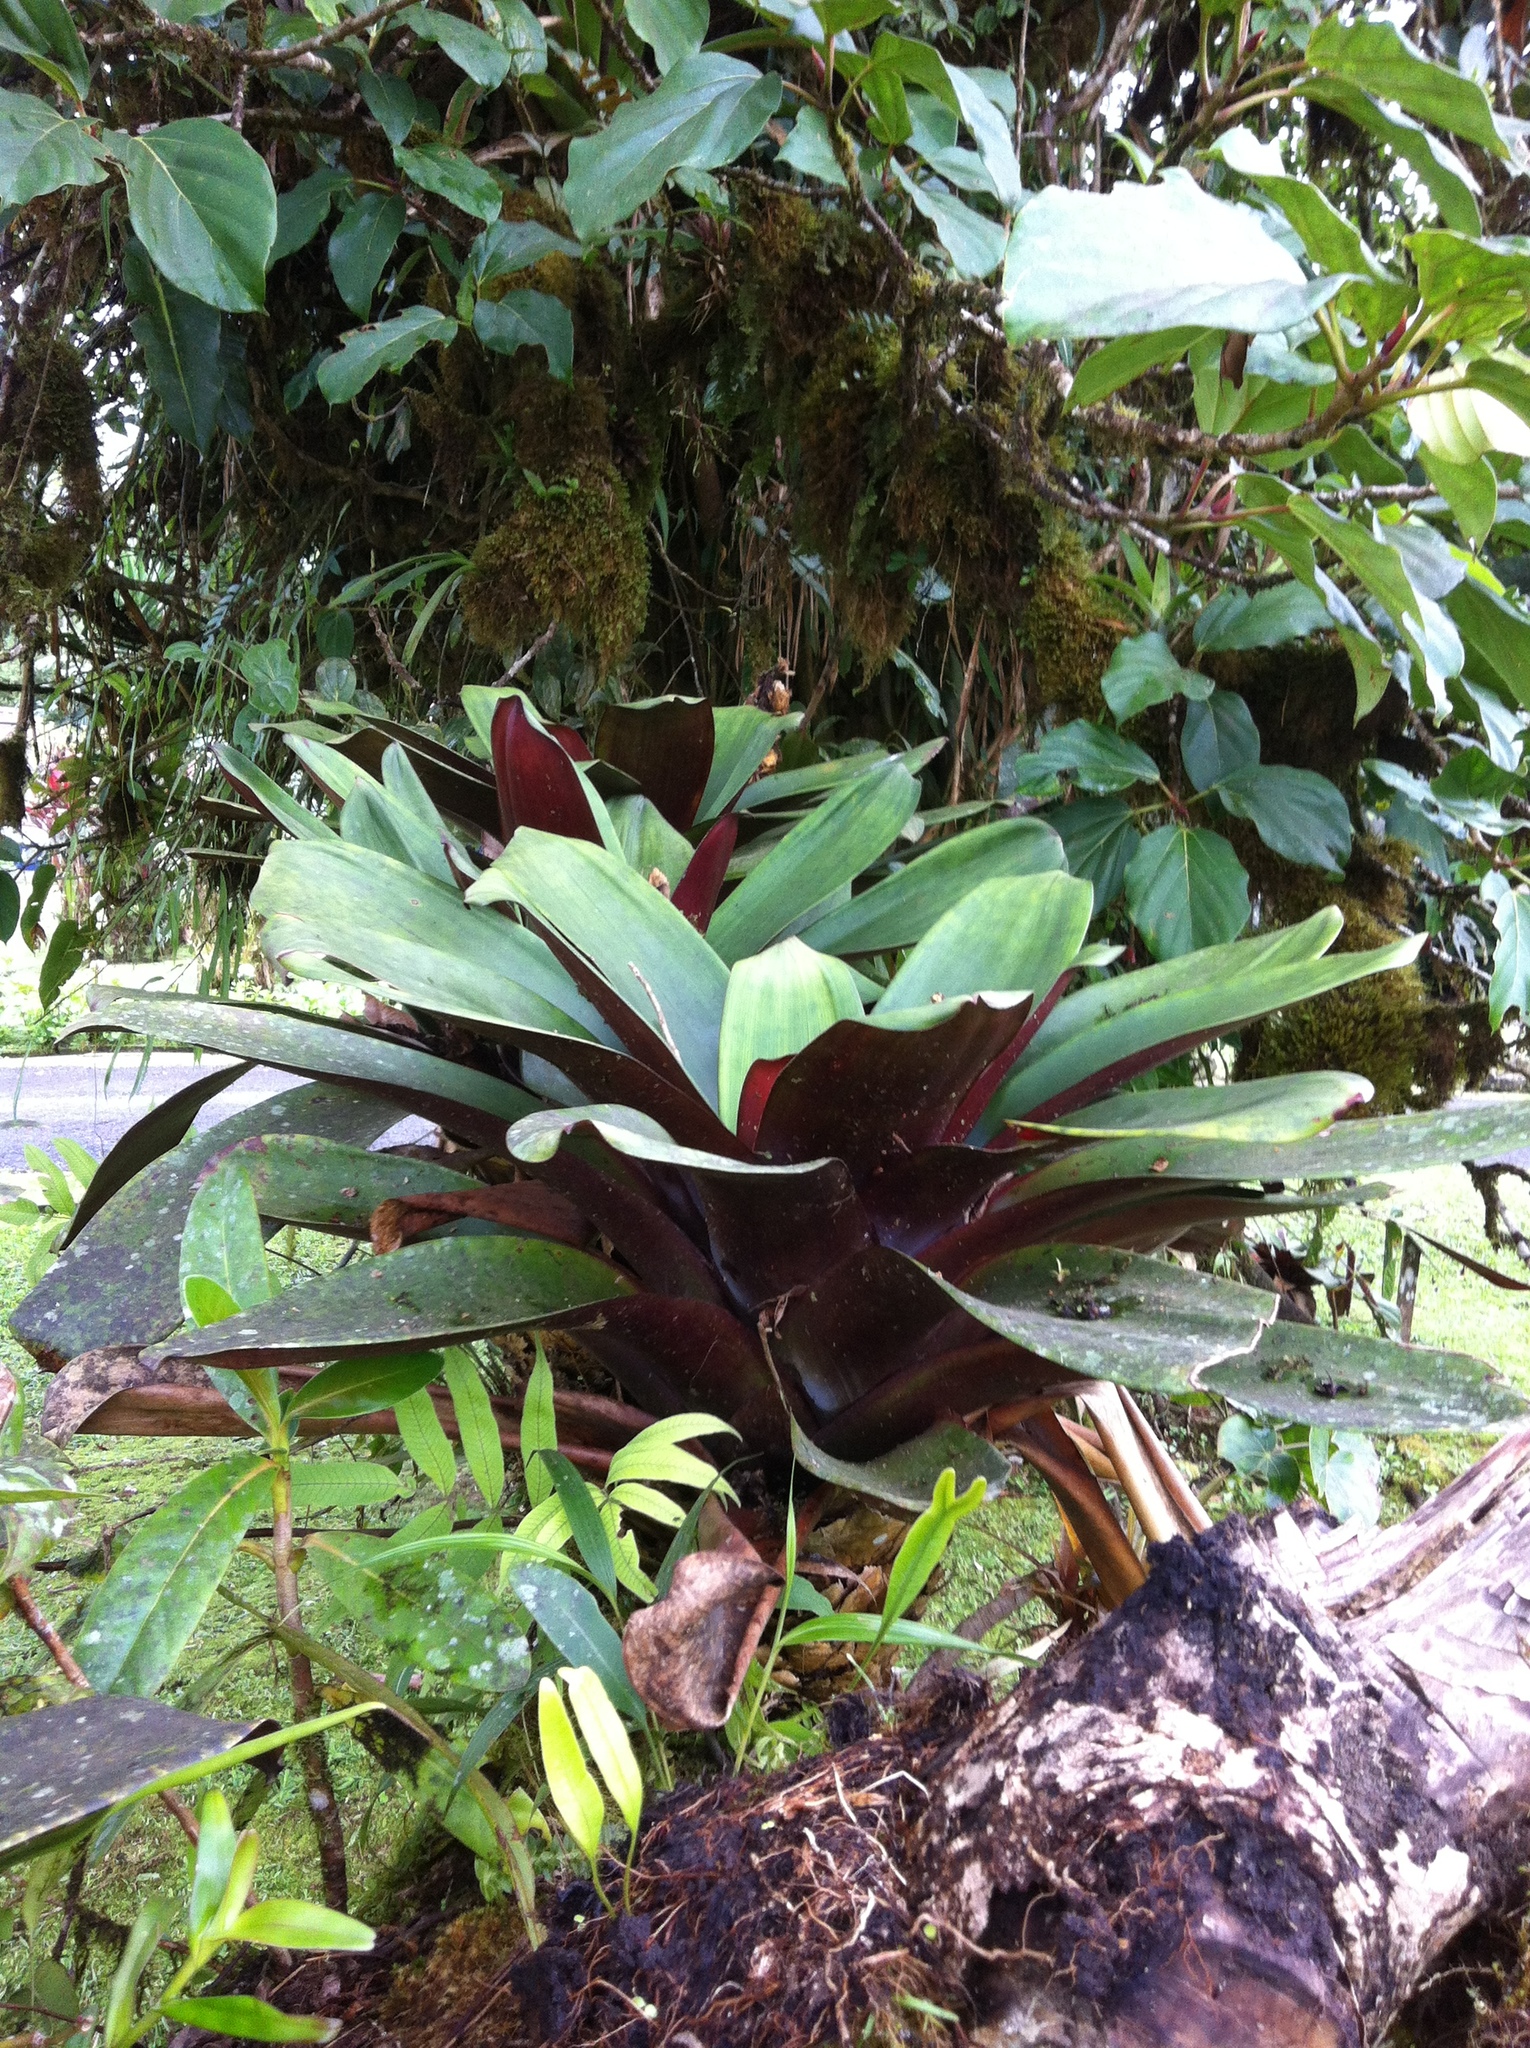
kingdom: Plantae
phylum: Tracheophyta
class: Liliopsida
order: Poales
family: Bromeliaceae
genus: Werauhia
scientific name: Werauhia latissima
